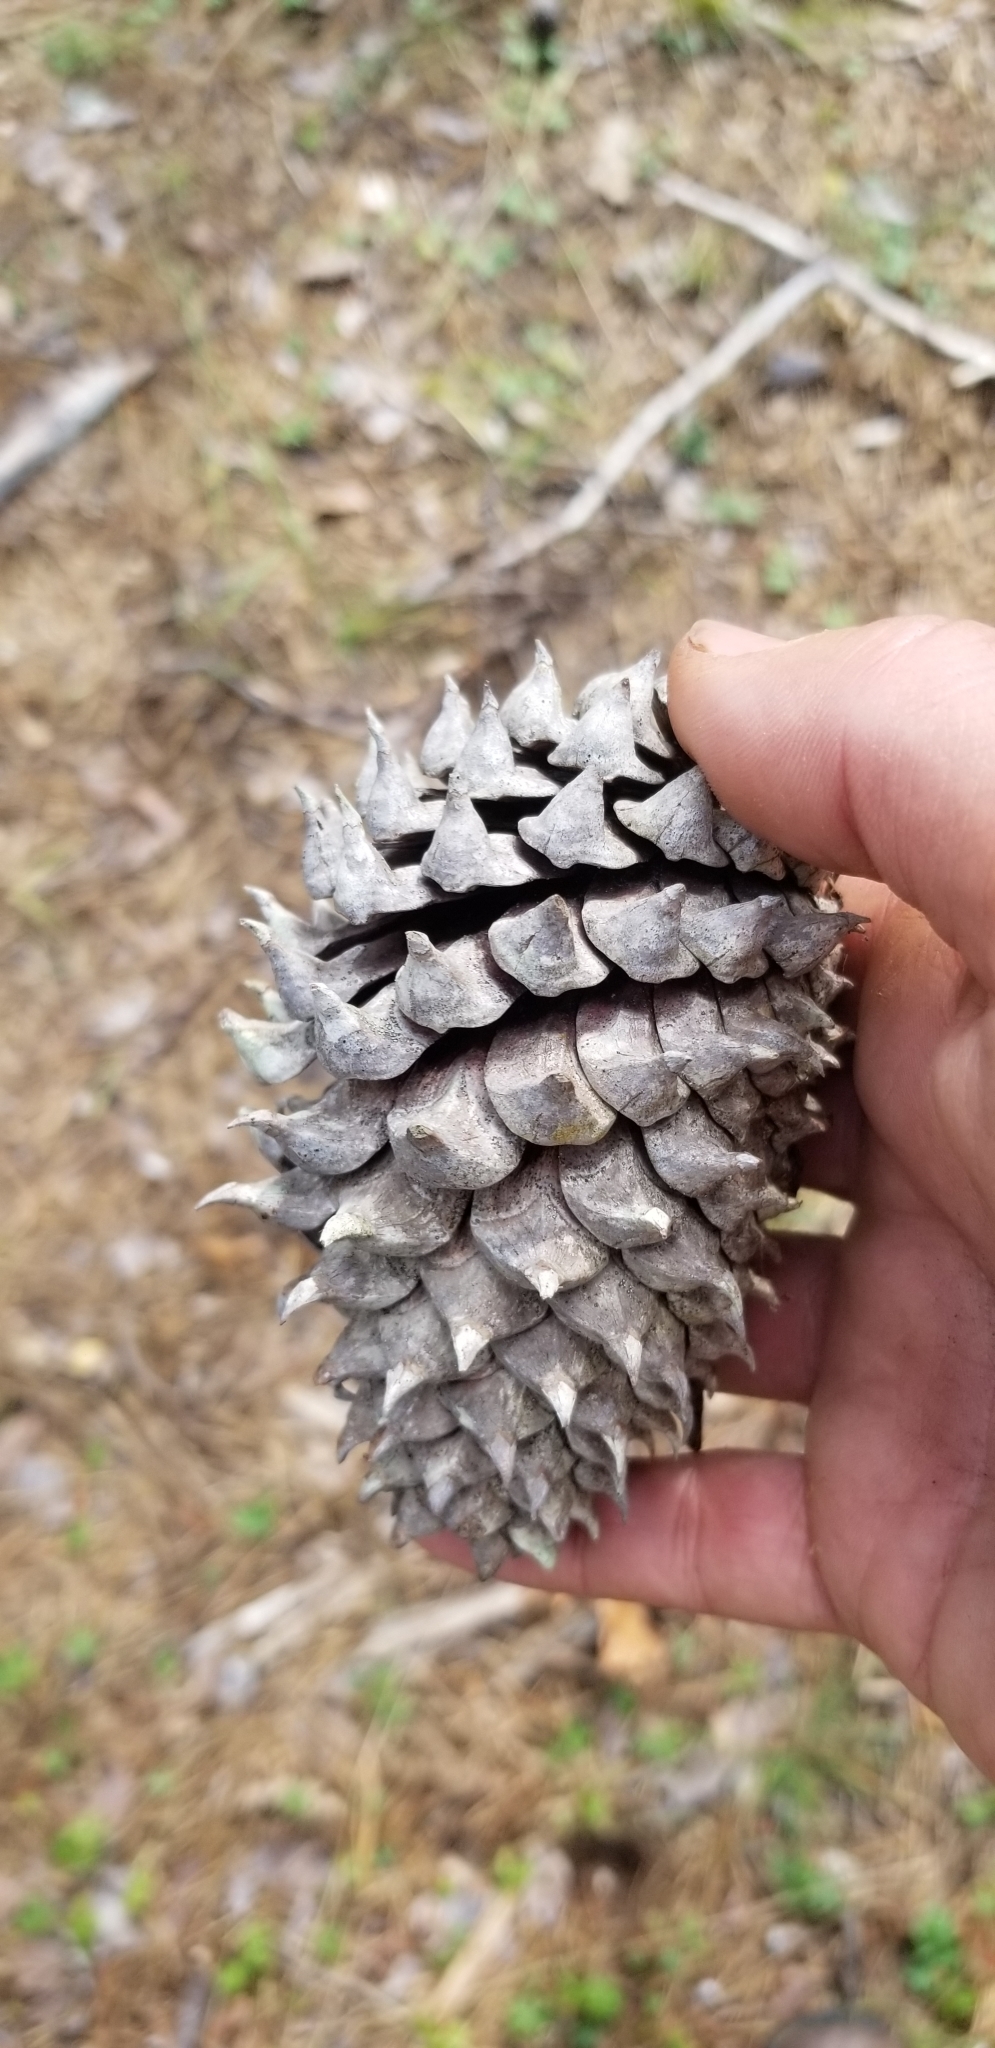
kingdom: Plantae
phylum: Tracheophyta
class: Pinopsida
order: Pinales
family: Pinaceae
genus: Pinus
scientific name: Pinus pungens
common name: Hickory pine
